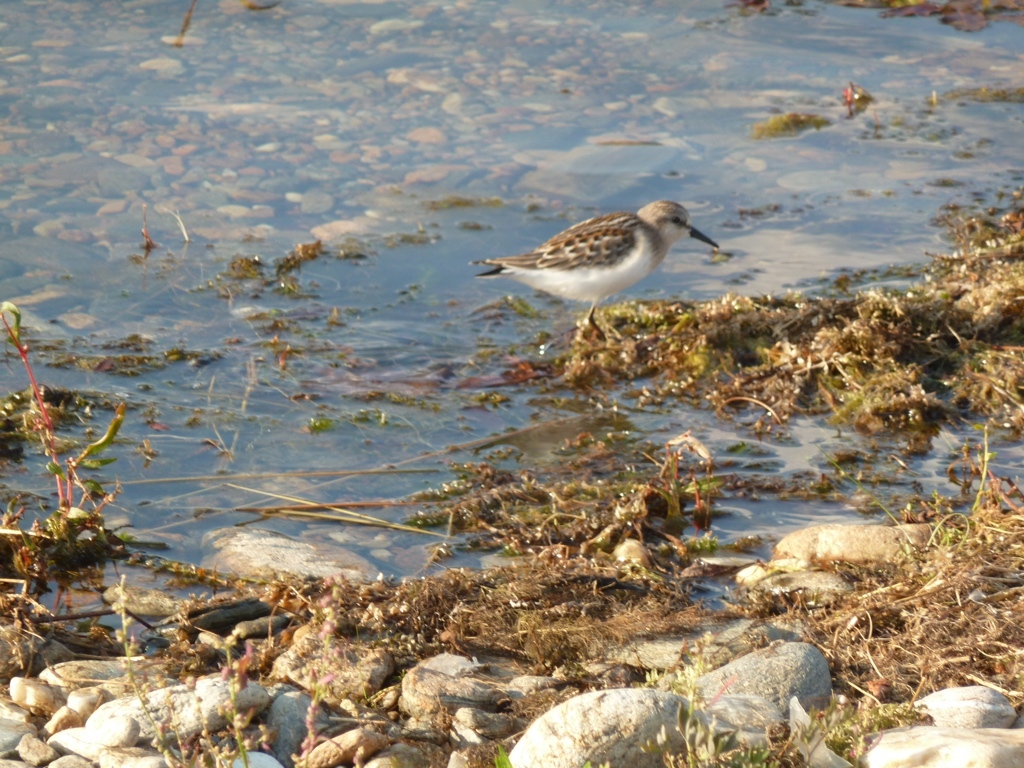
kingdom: Animalia
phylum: Chordata
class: Aves
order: Charadriiformes
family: Scolopacidae
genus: Calidris
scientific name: Calidris minuta
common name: Little stint
